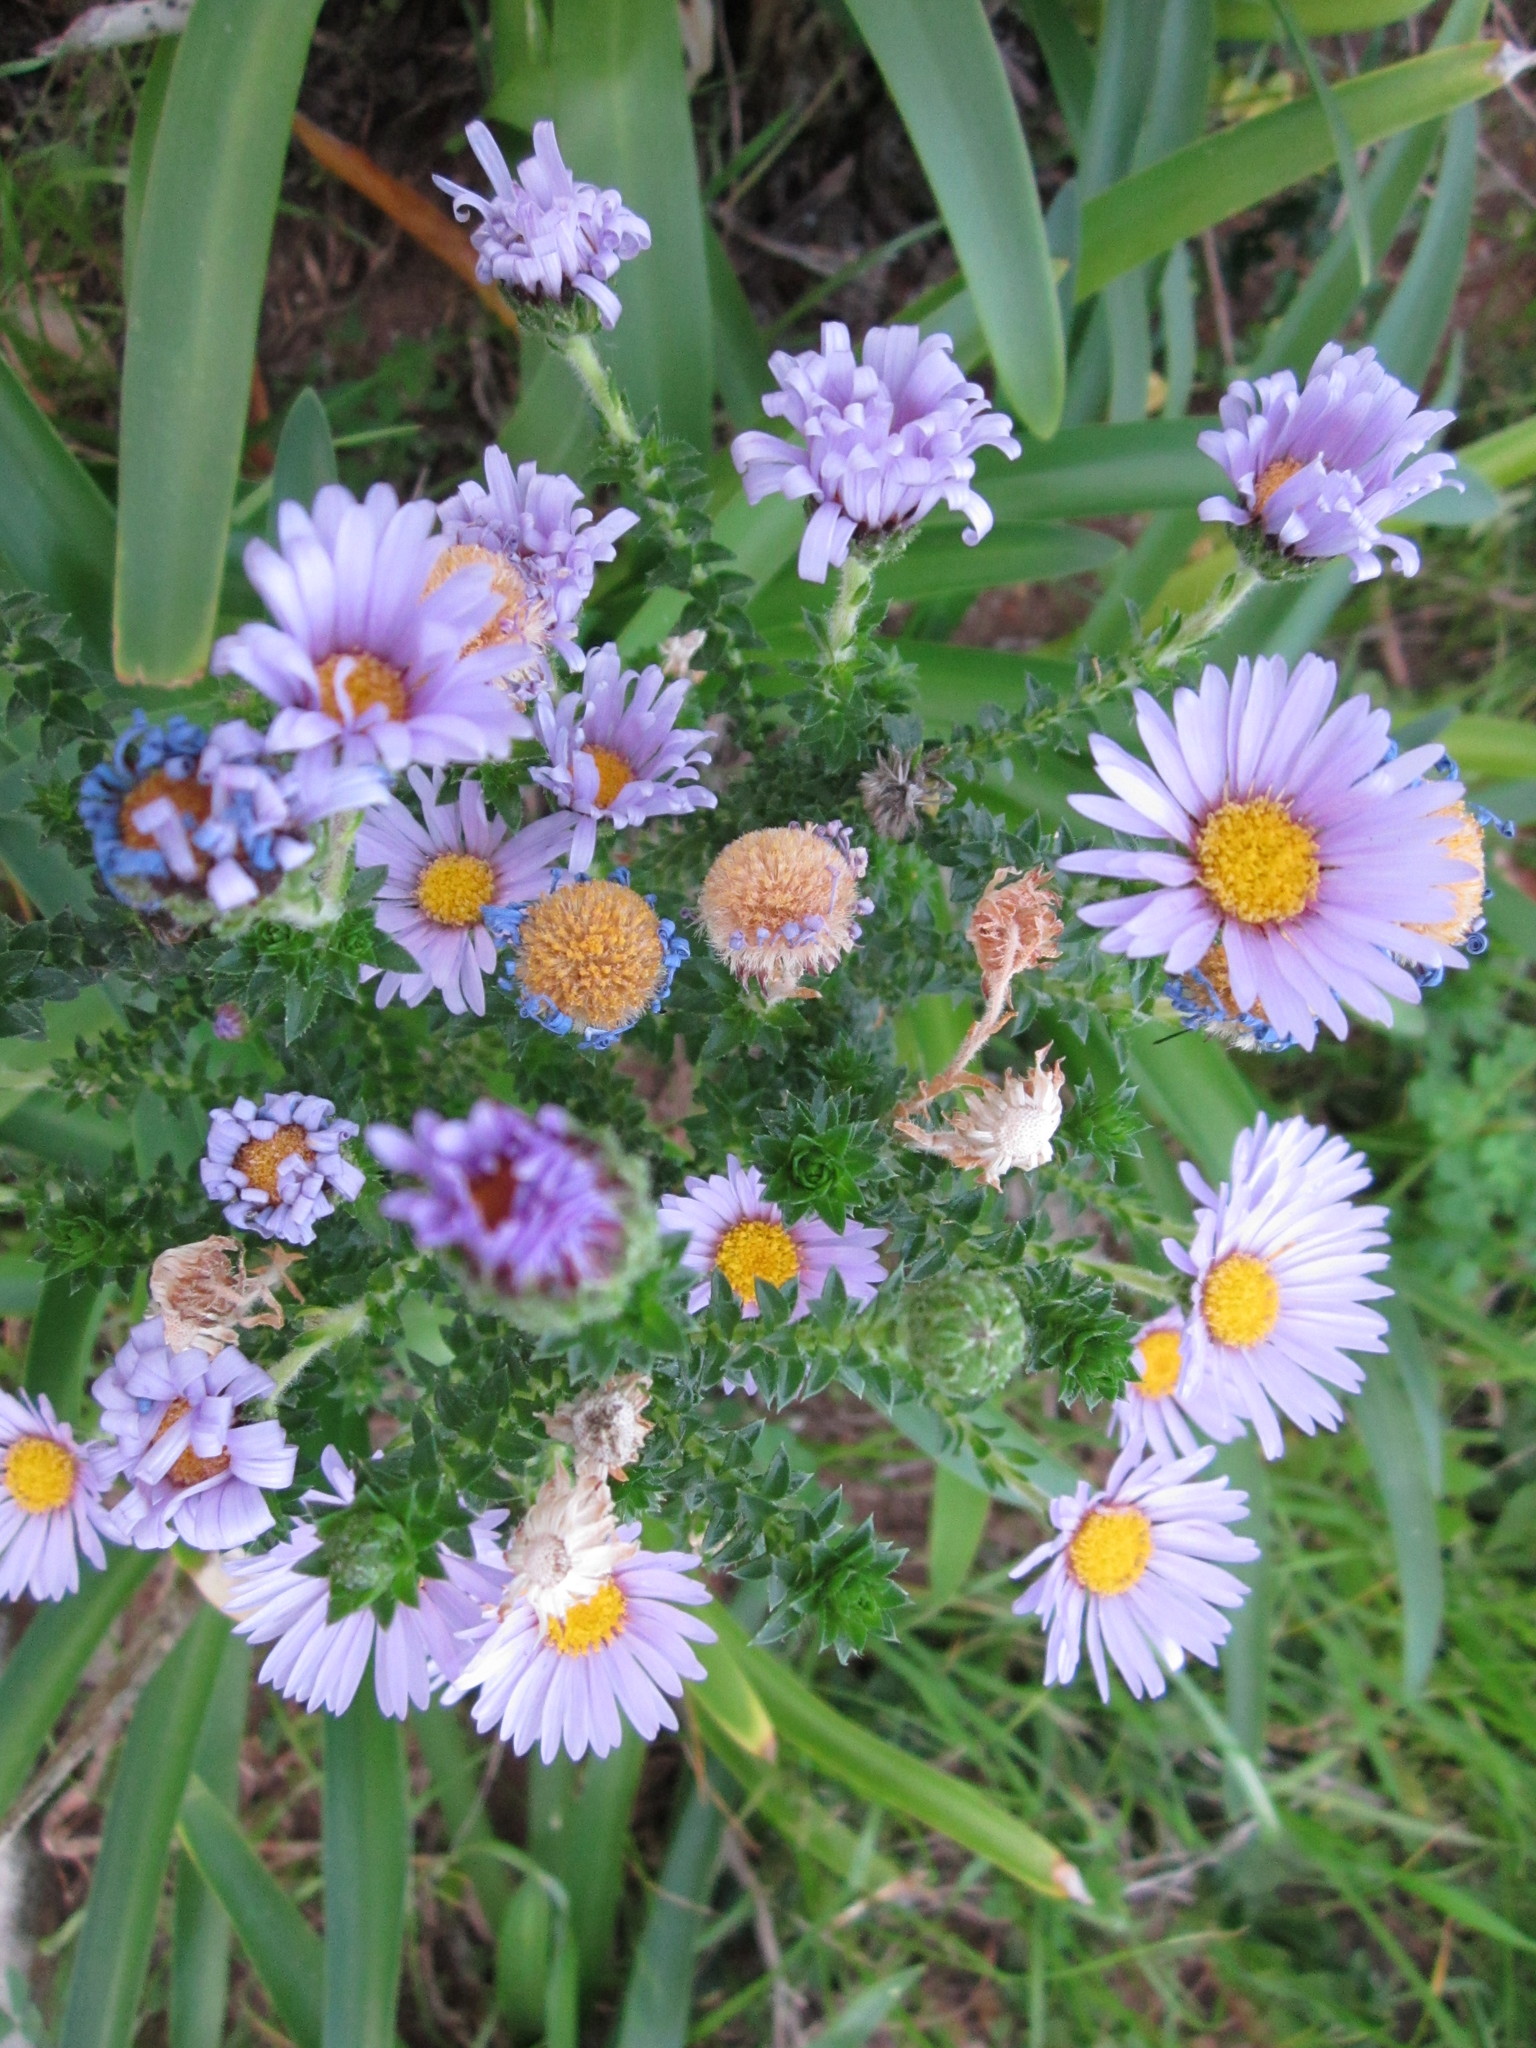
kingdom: Plantae
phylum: Tracheophyta
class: Magnoliopsida
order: Asterales
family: Asteraceae
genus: Felicia
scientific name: Felicia echinata
